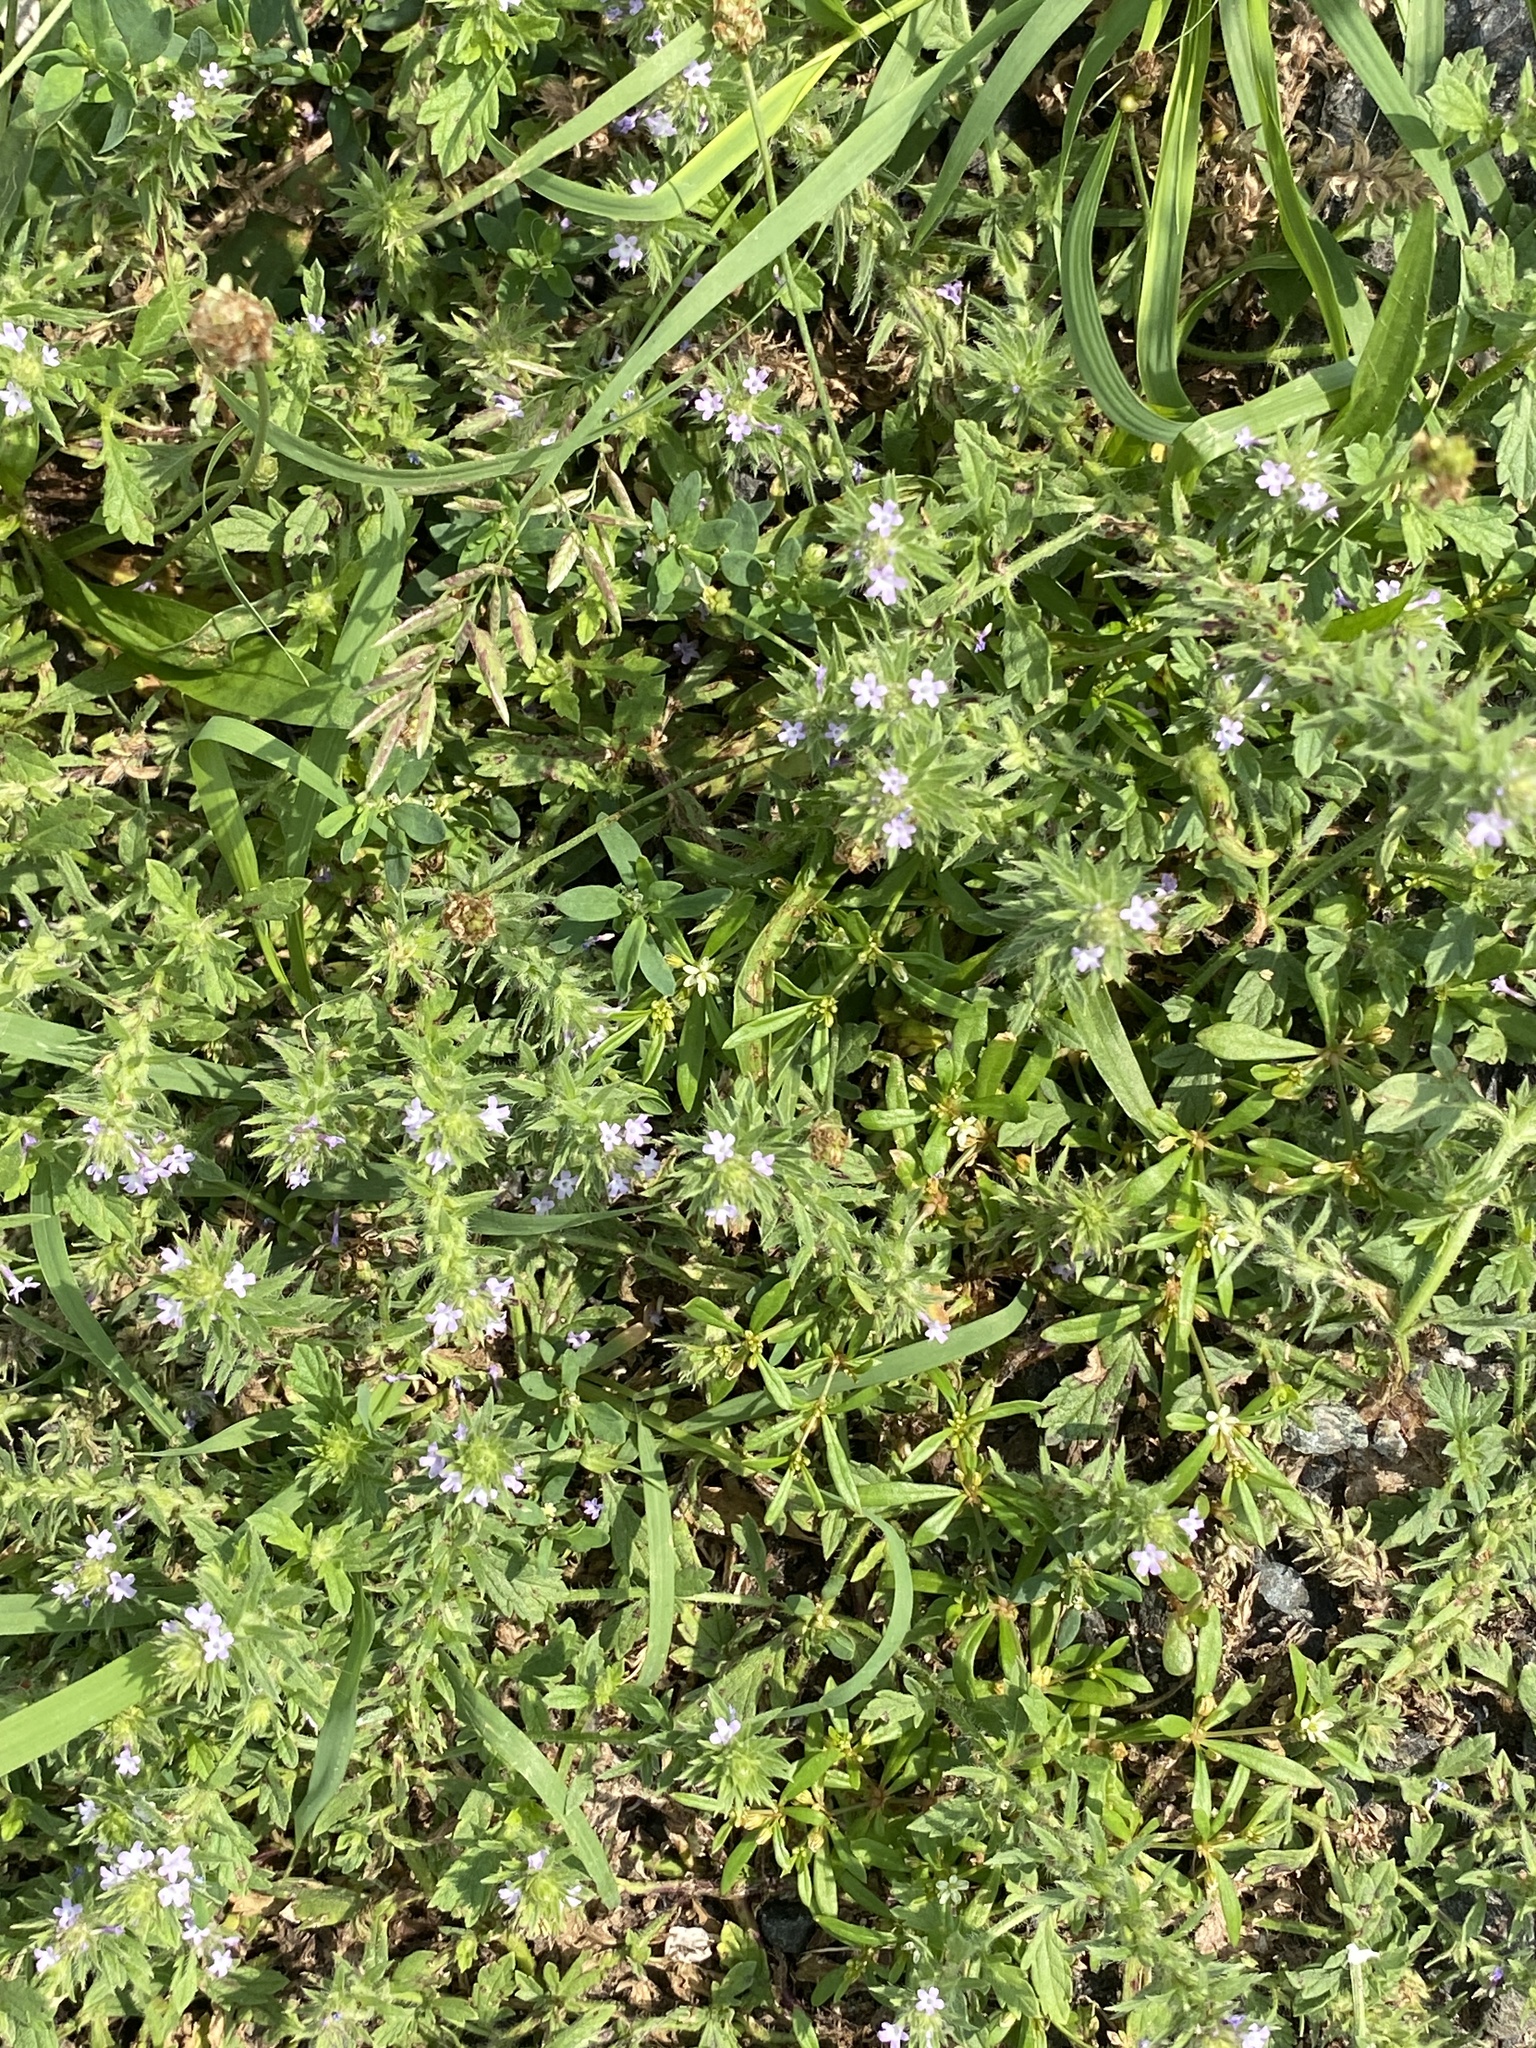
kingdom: Plantae
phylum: Tracheophyta
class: Magnoliopsida
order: Lamiales
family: Verbenaceae
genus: Verbena
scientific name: Verbena bracteata
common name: Bracted vervain
